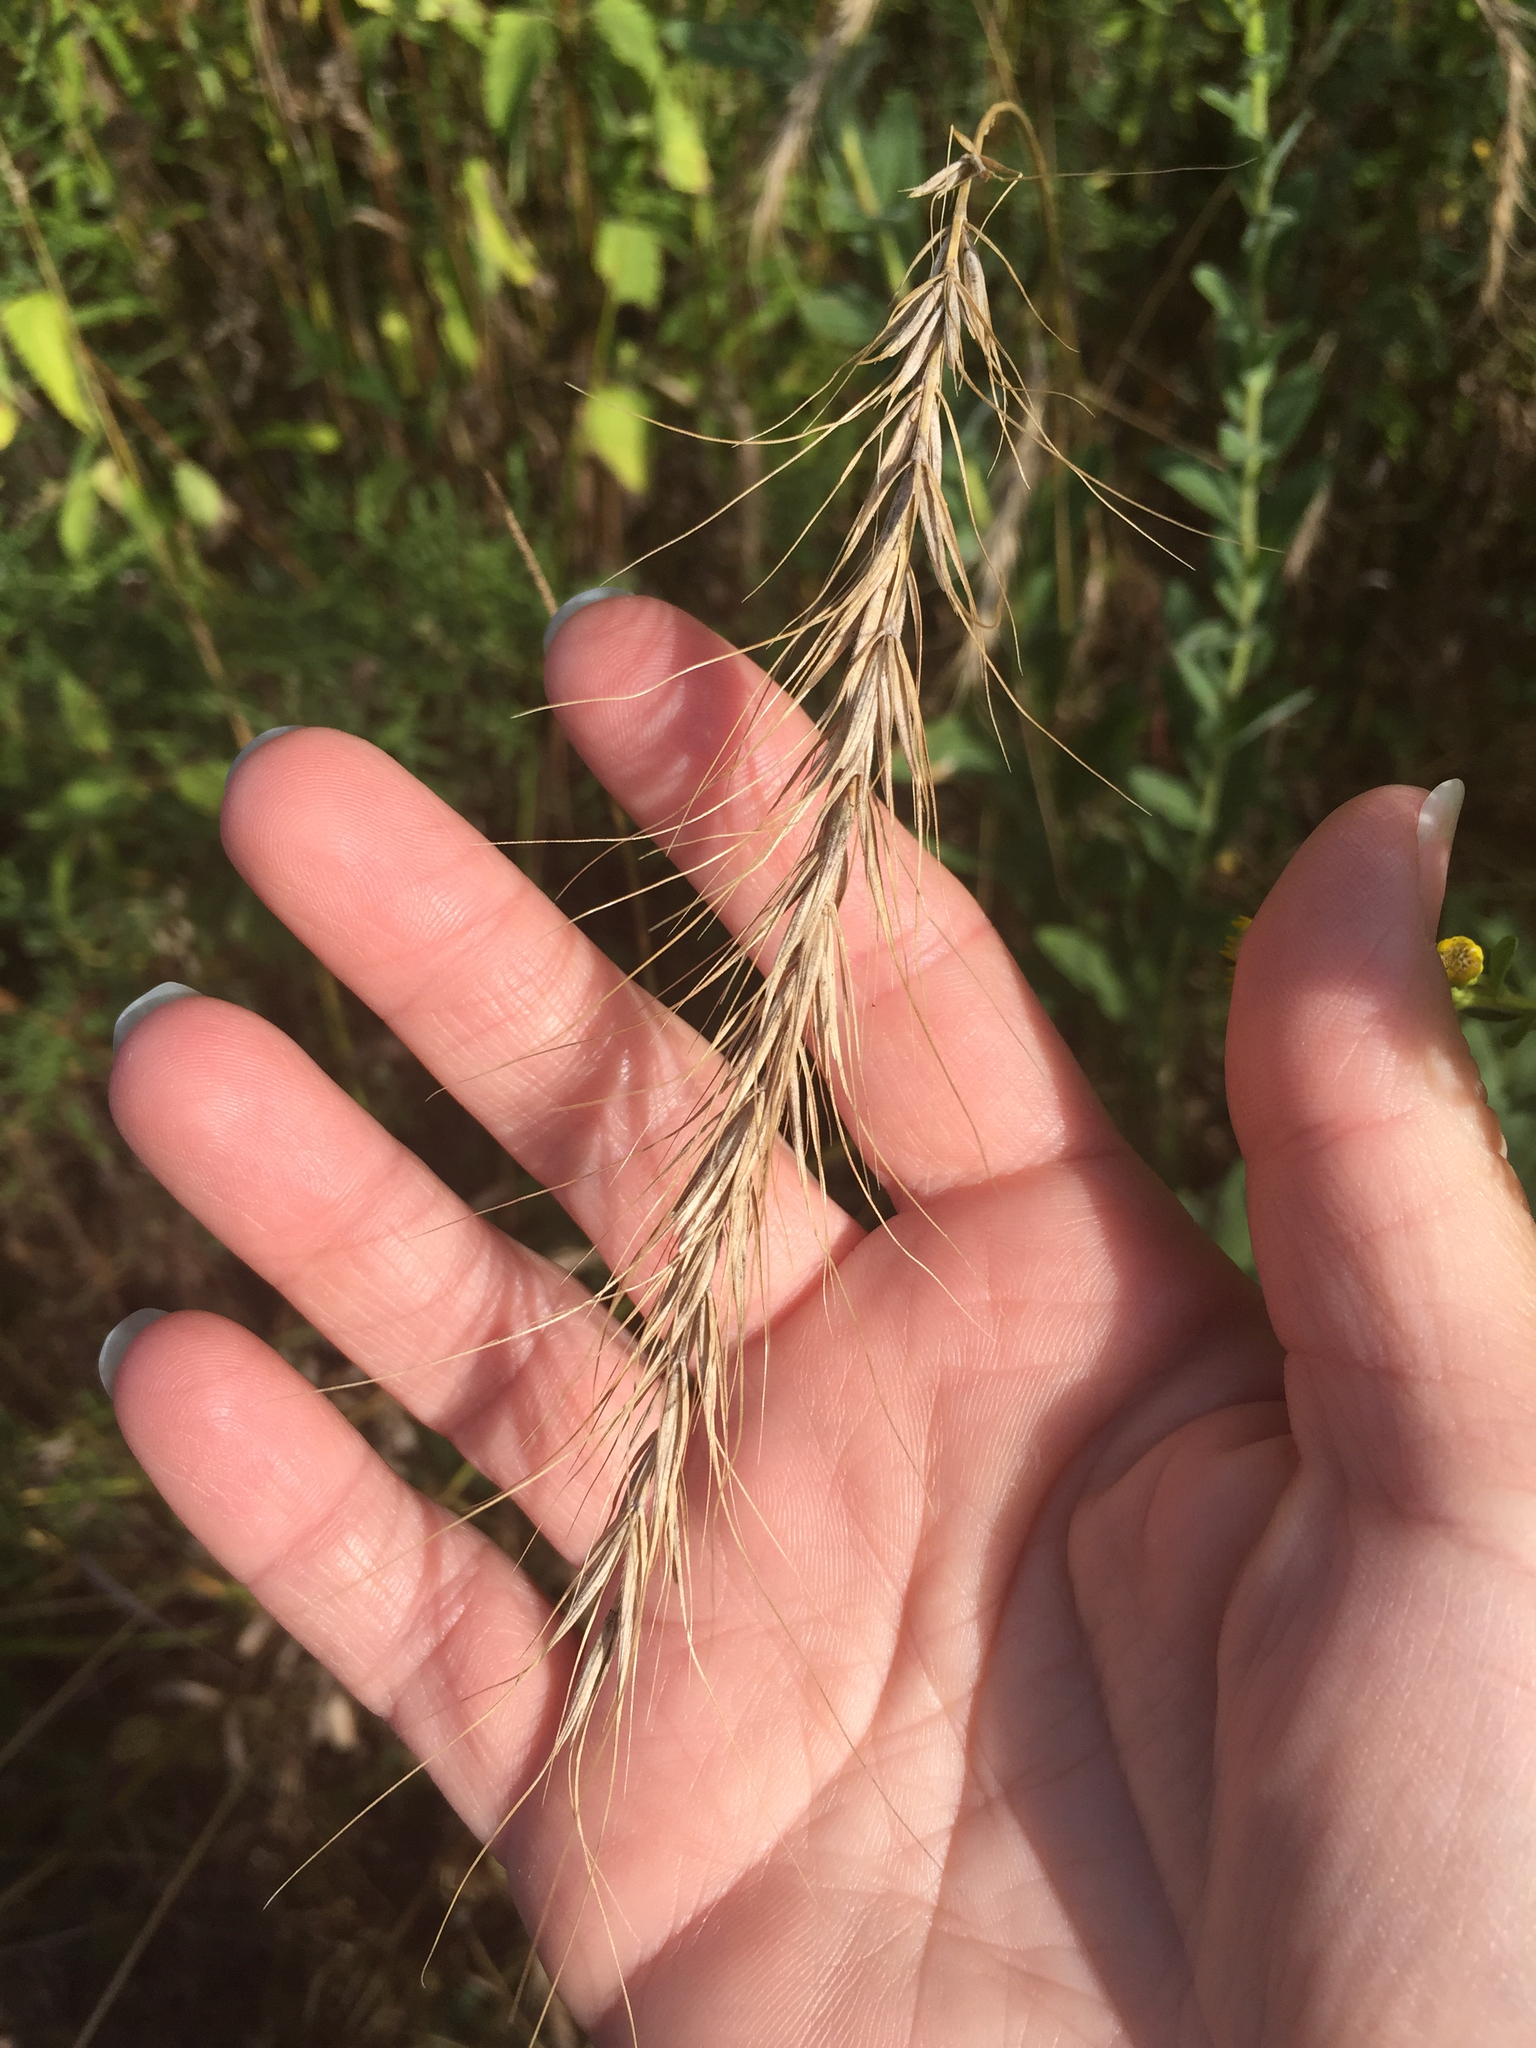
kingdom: Plantae
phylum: Tracheophyta
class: Liliopsida
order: Poales
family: Poaceae
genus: Elymus
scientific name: Elymus canadensis
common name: Canada wild rye
